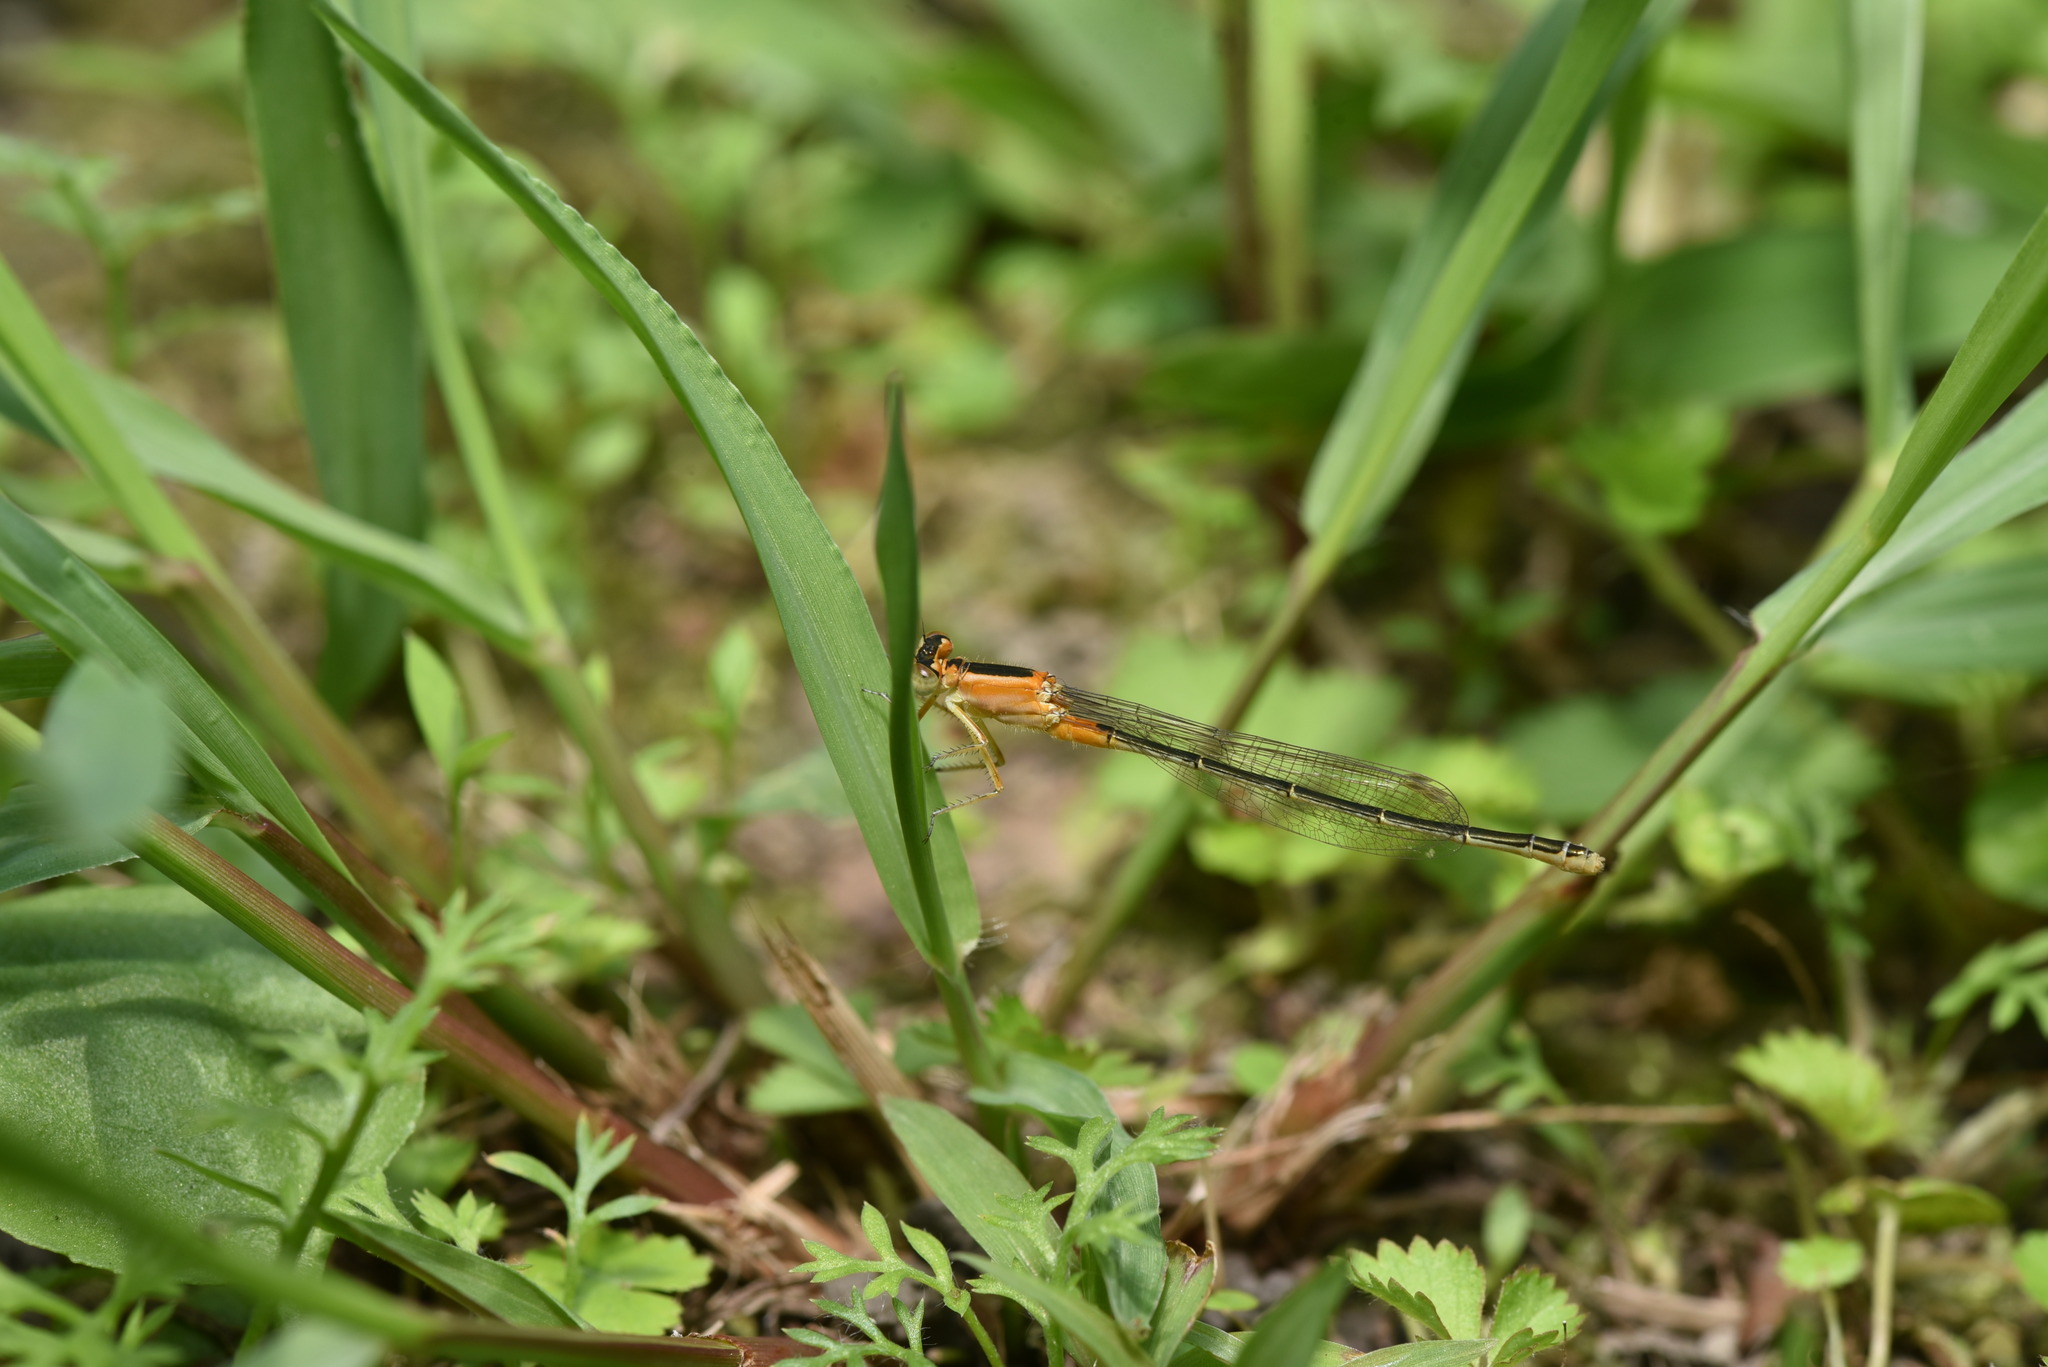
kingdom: Animalia
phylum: Arthropoda
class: Insecta
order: Odonata
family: Coenagrionidae
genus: Ischnura
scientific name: Ischnura senegalensis
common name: Tropical bluetail
